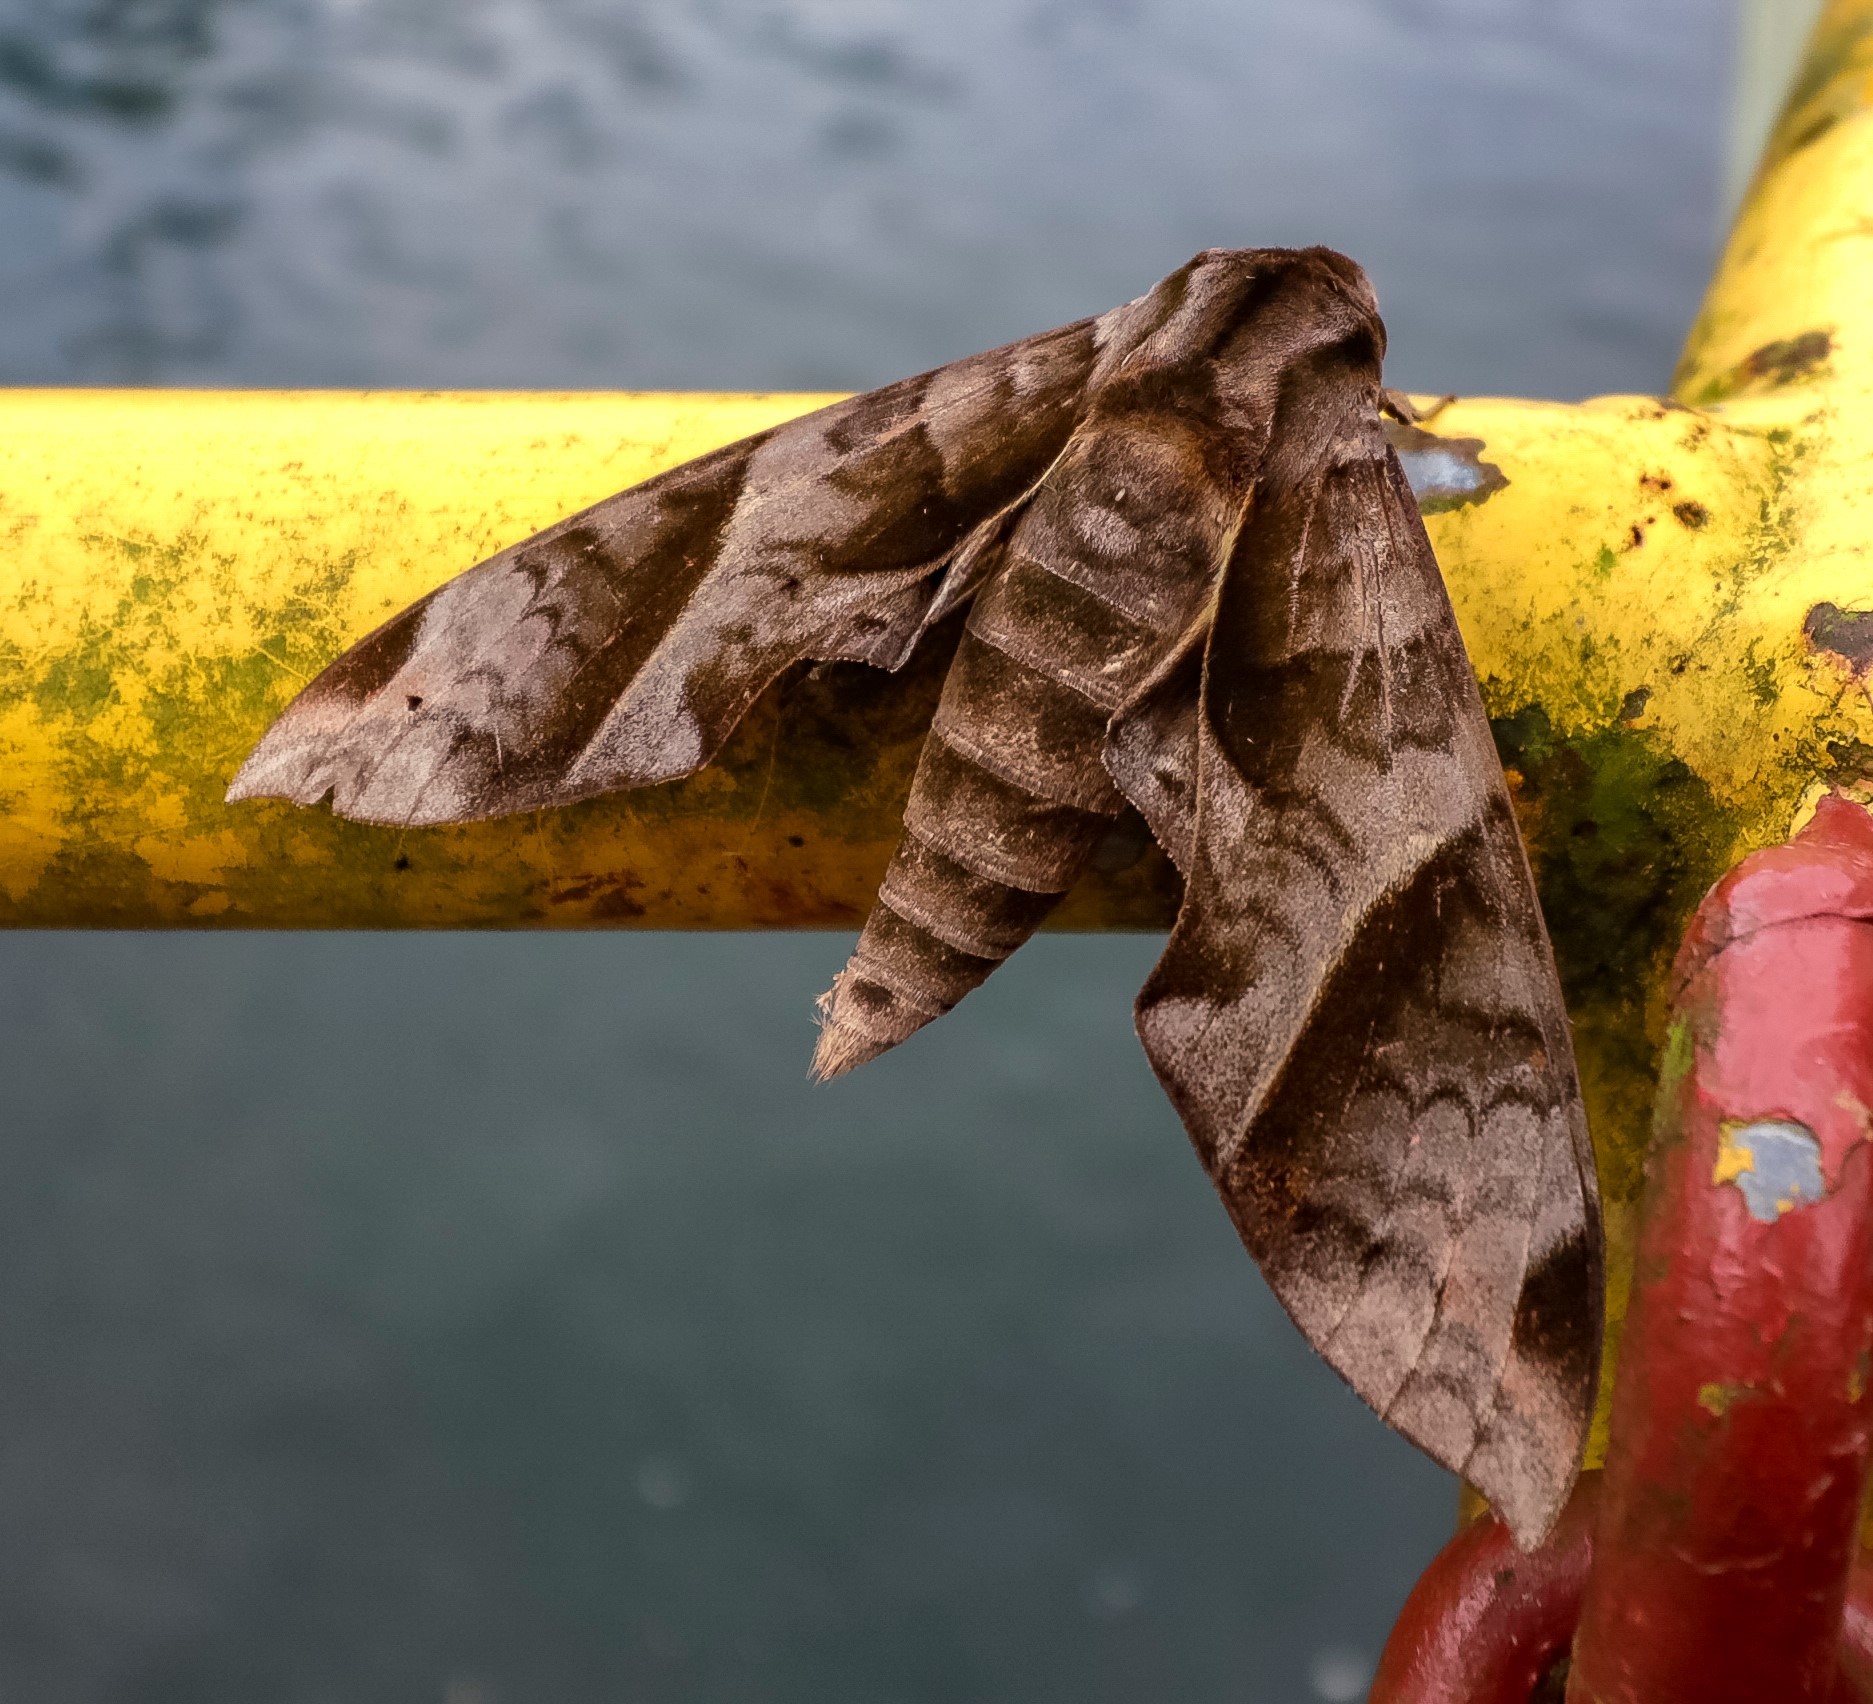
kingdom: Animalia
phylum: Arthropoda
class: Insecta
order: Lepidoptera
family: Sphingidae
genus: Eumorpha
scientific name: Eumorpha anchemolus
